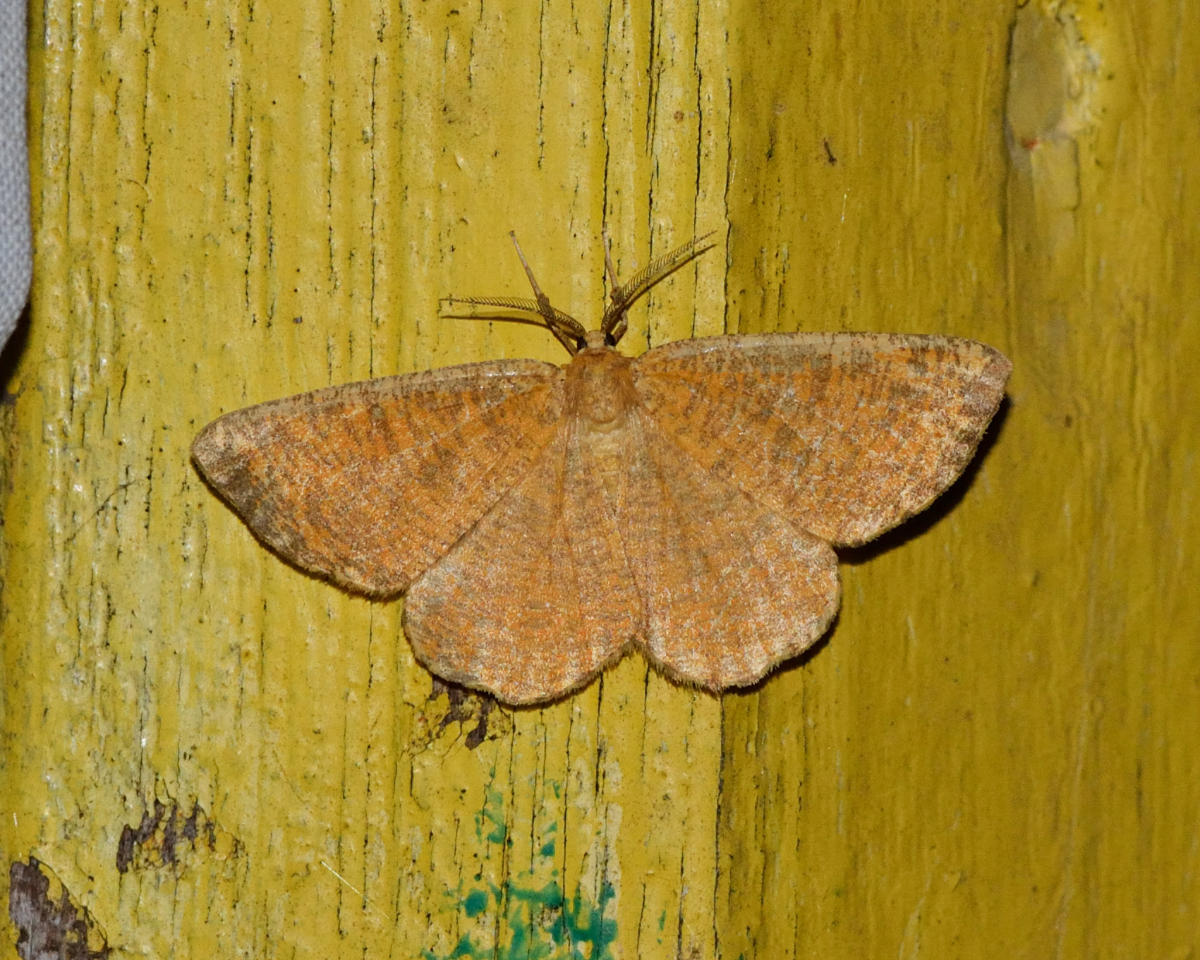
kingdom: Animalia
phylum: Arthropoda
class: Insecta
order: Lepidoptera
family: Geometridae
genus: Angerona
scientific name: Angerona prunaria
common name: Orange moth
